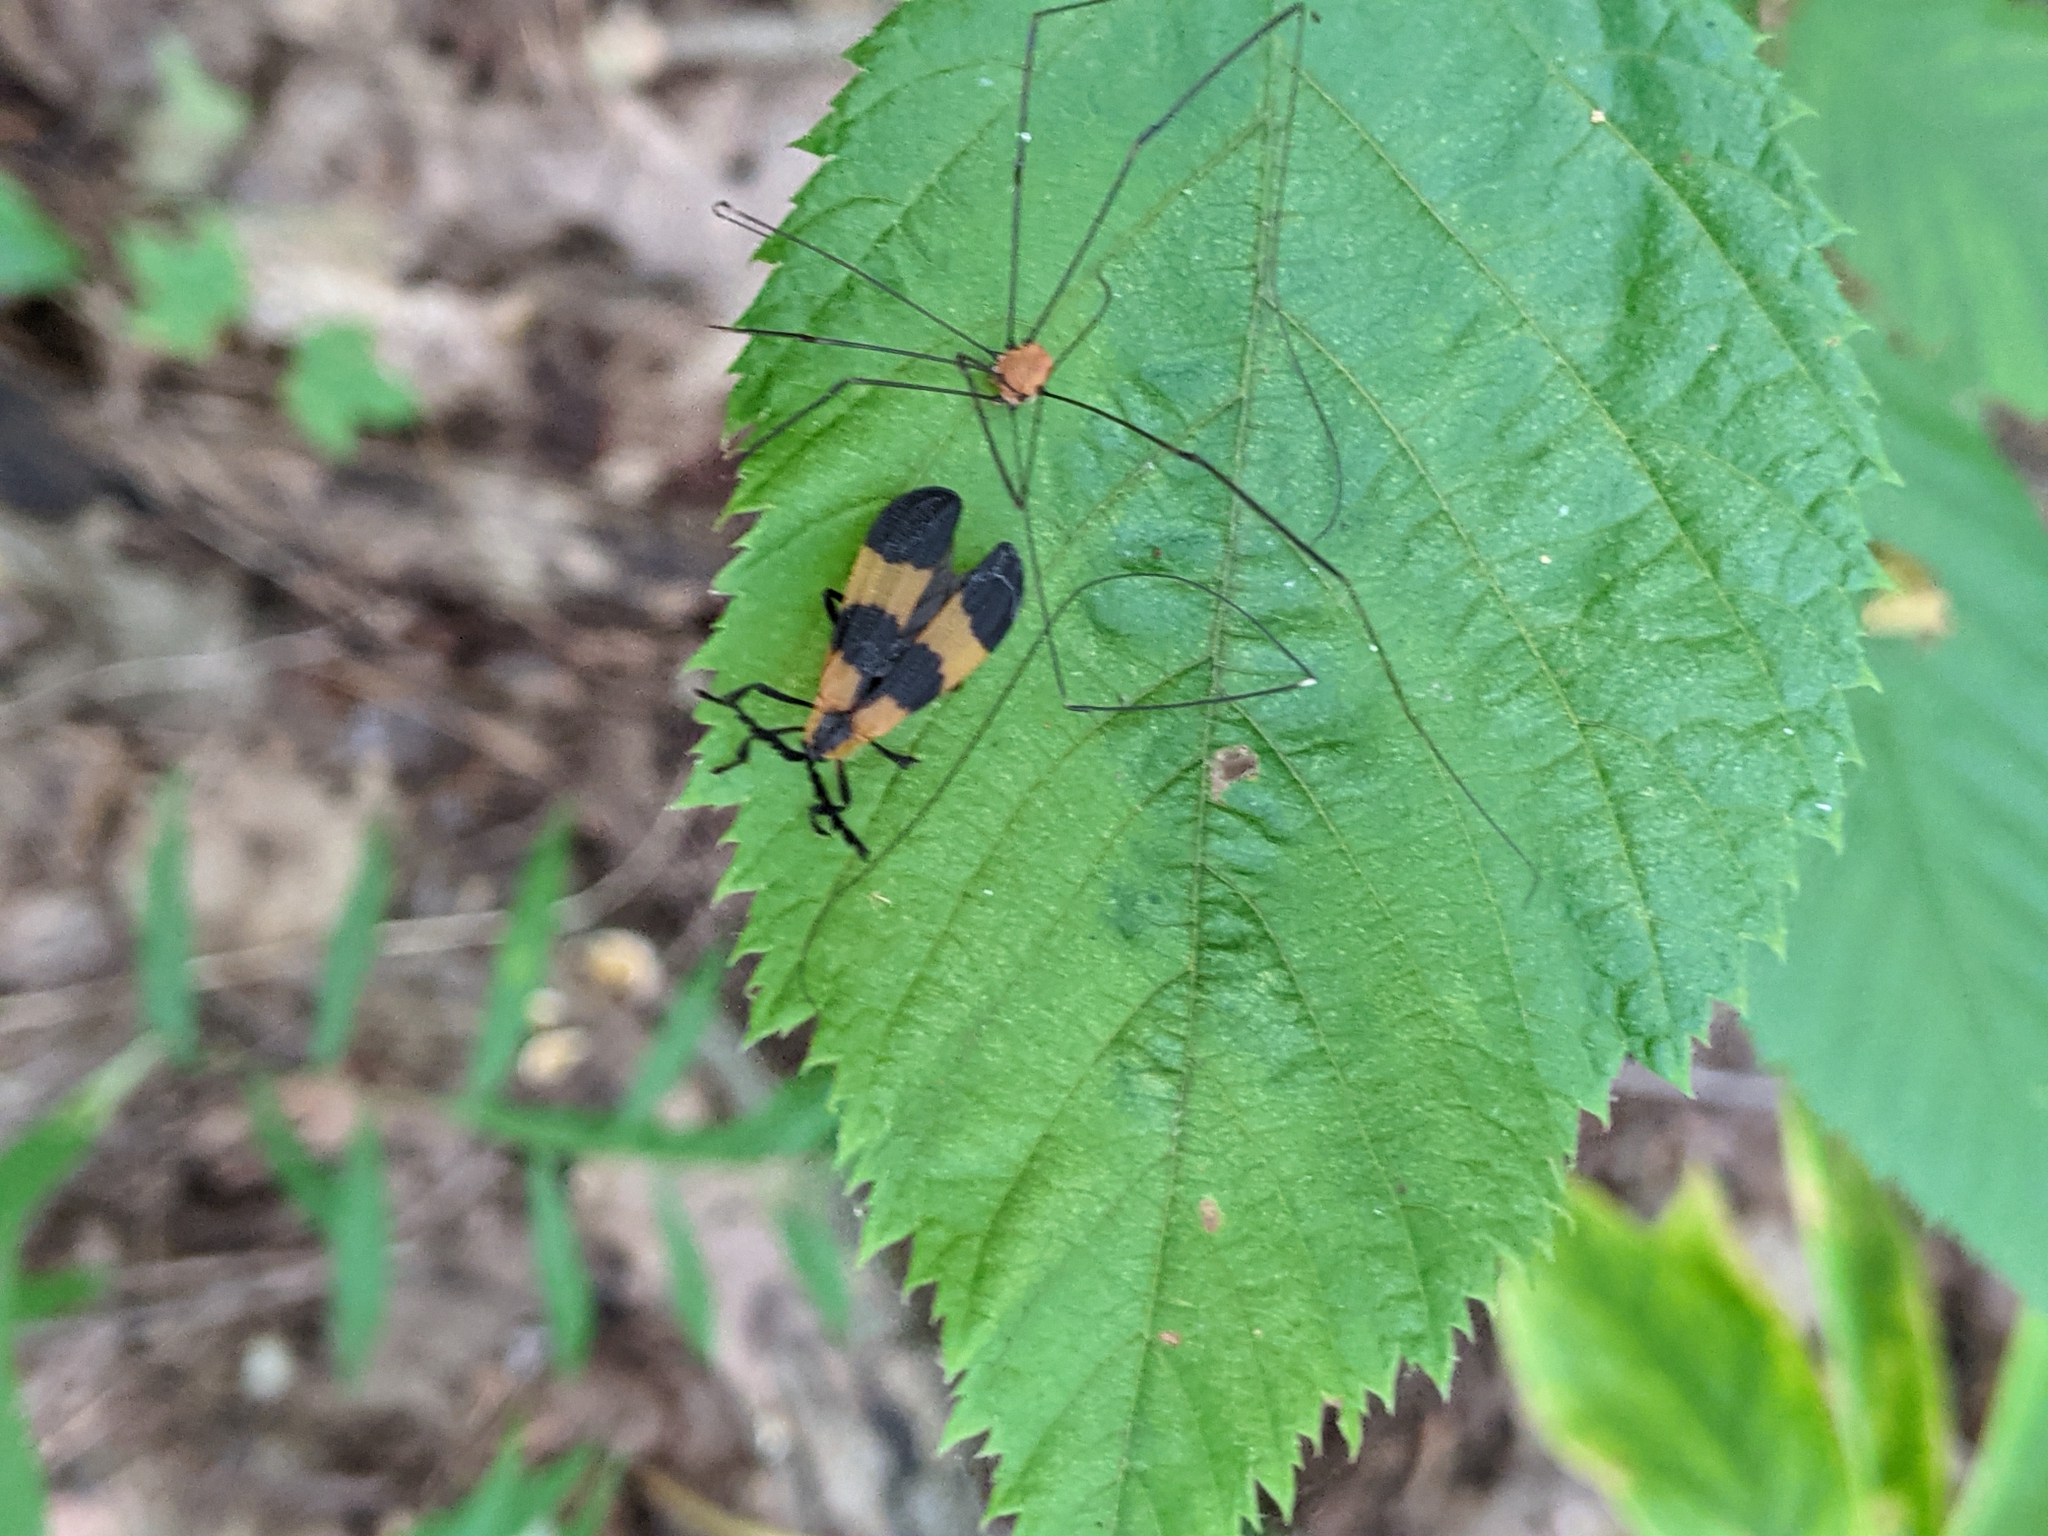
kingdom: Animalia
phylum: Arthropoda
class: Insecta
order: Coleoptera
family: Lycidae
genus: Calopteron
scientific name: Calopteron reticulatum
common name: Banded net-winged beetle
